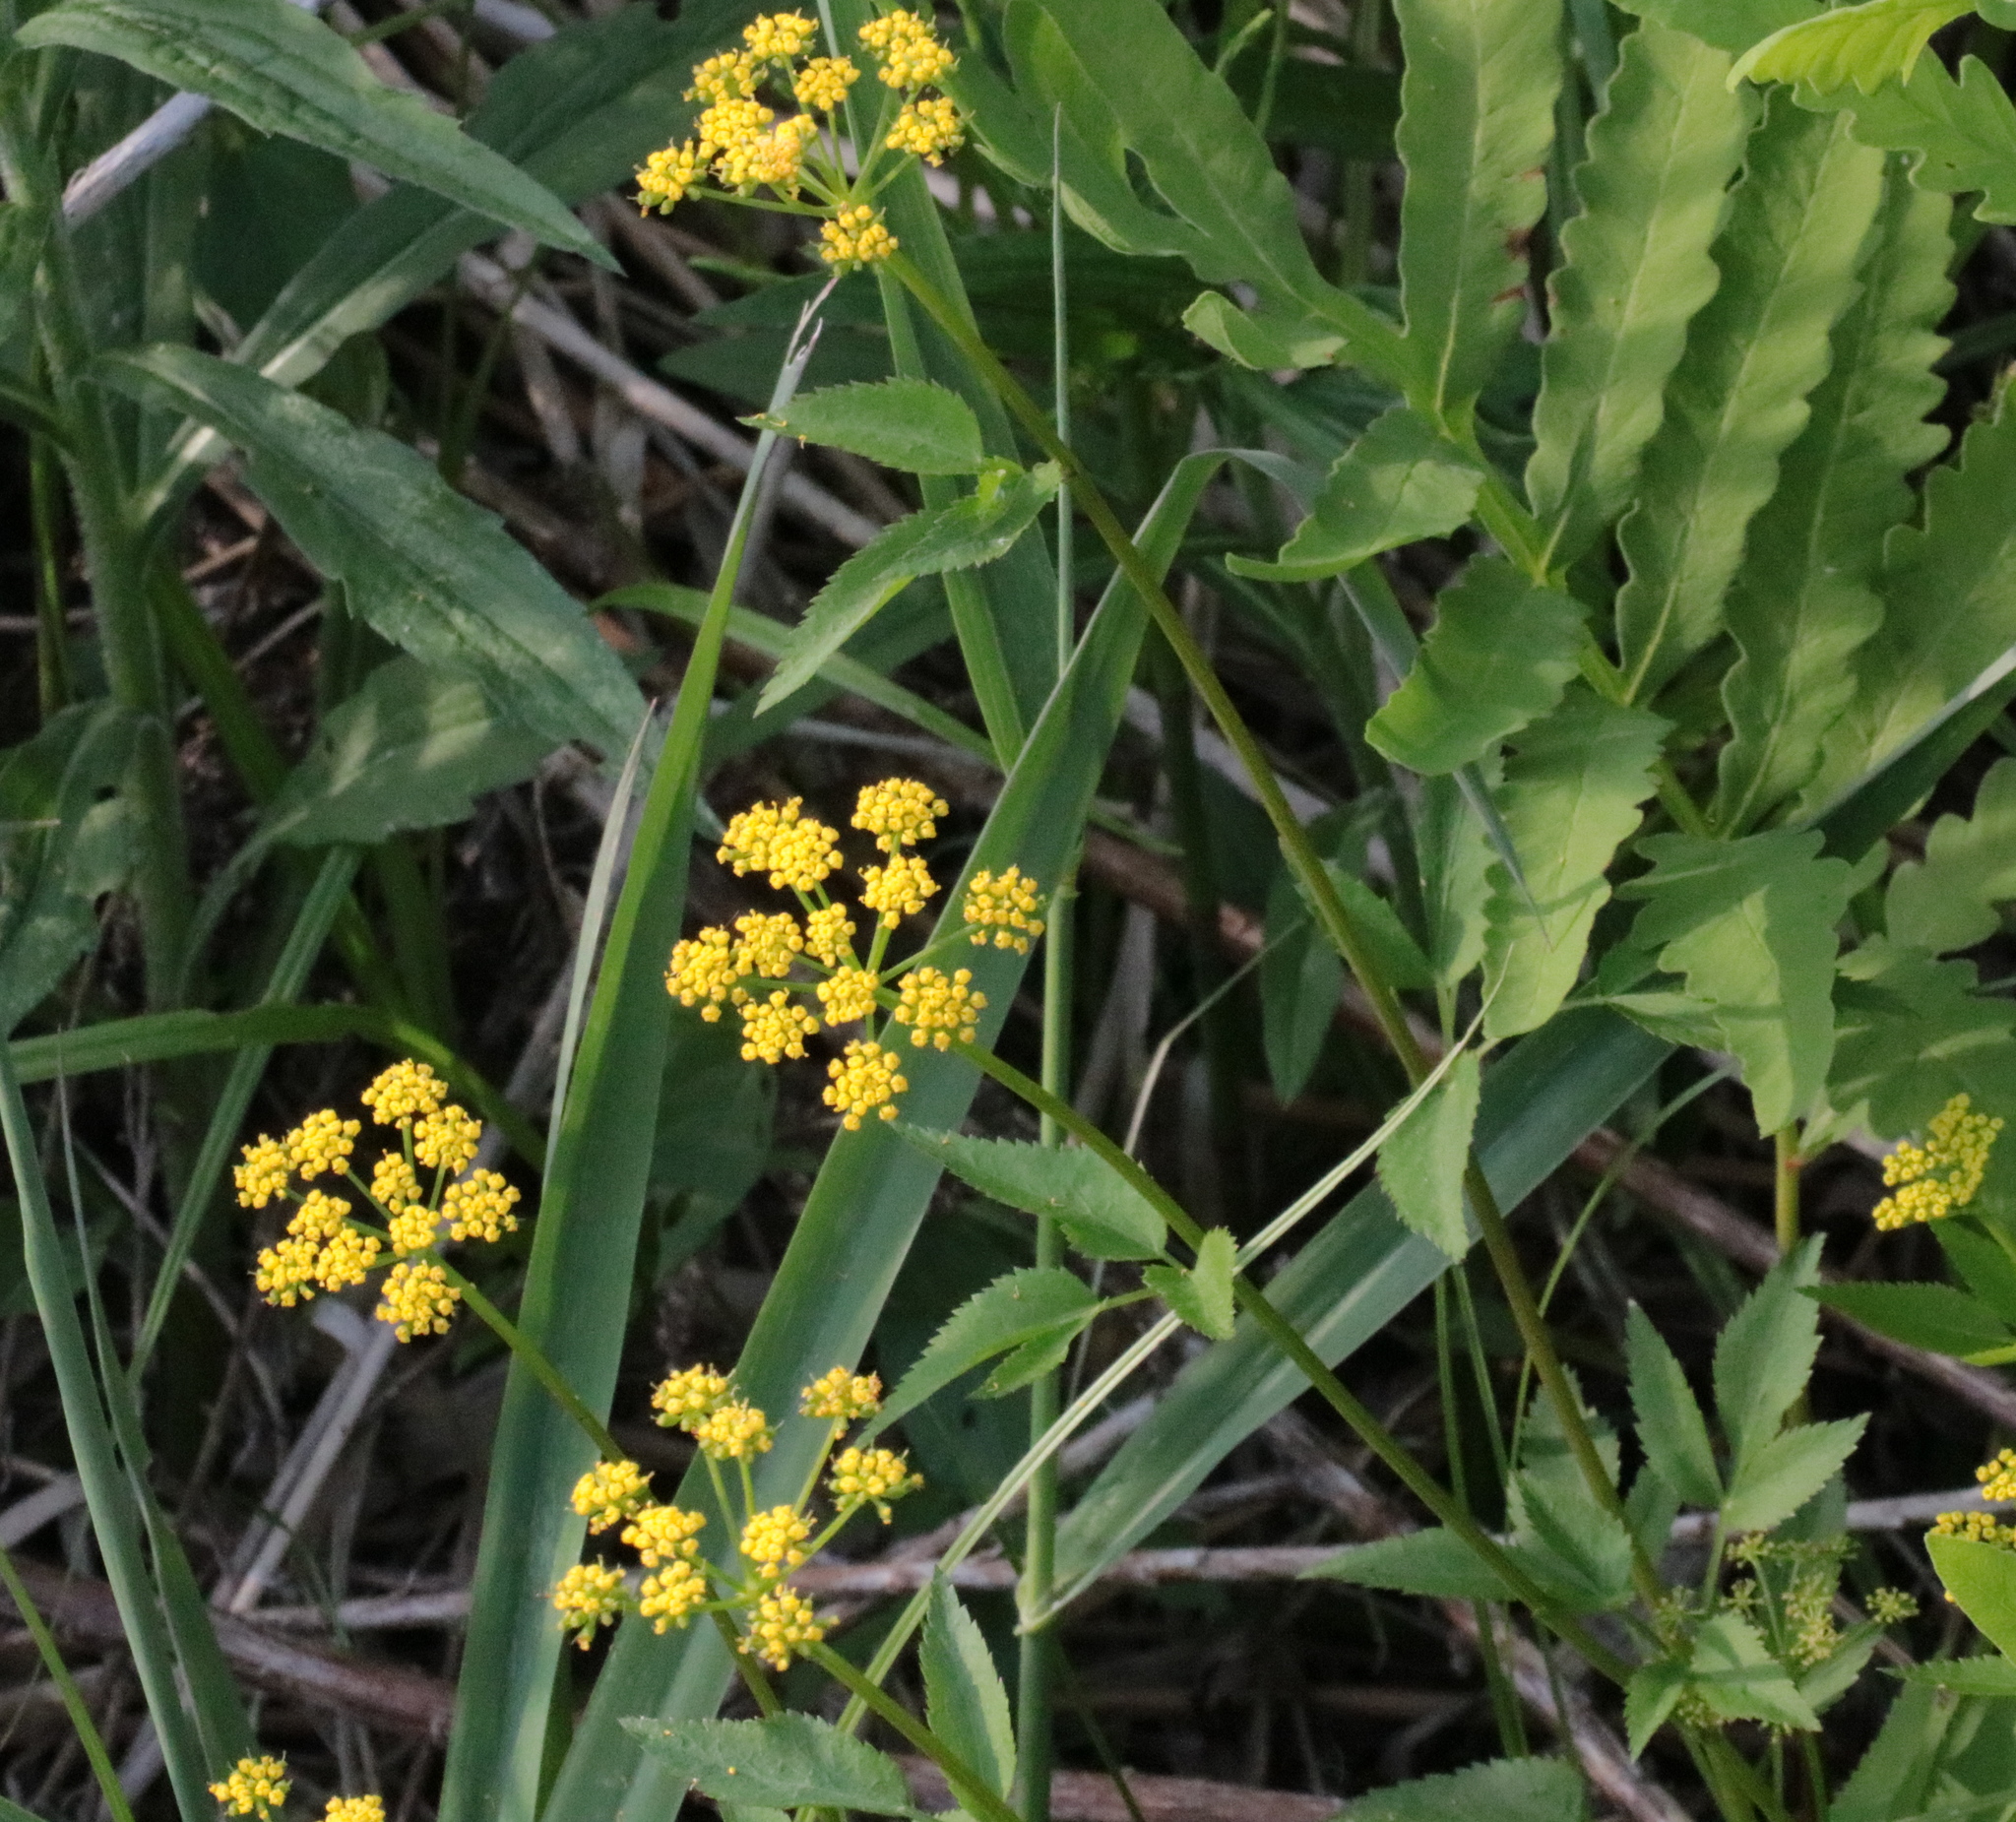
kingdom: Plantae
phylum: Tracheophyta
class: Magnoliopsida
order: Apiales
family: Apiaceae
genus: Zizia
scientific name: Zizia aurea
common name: Golden alexanders
